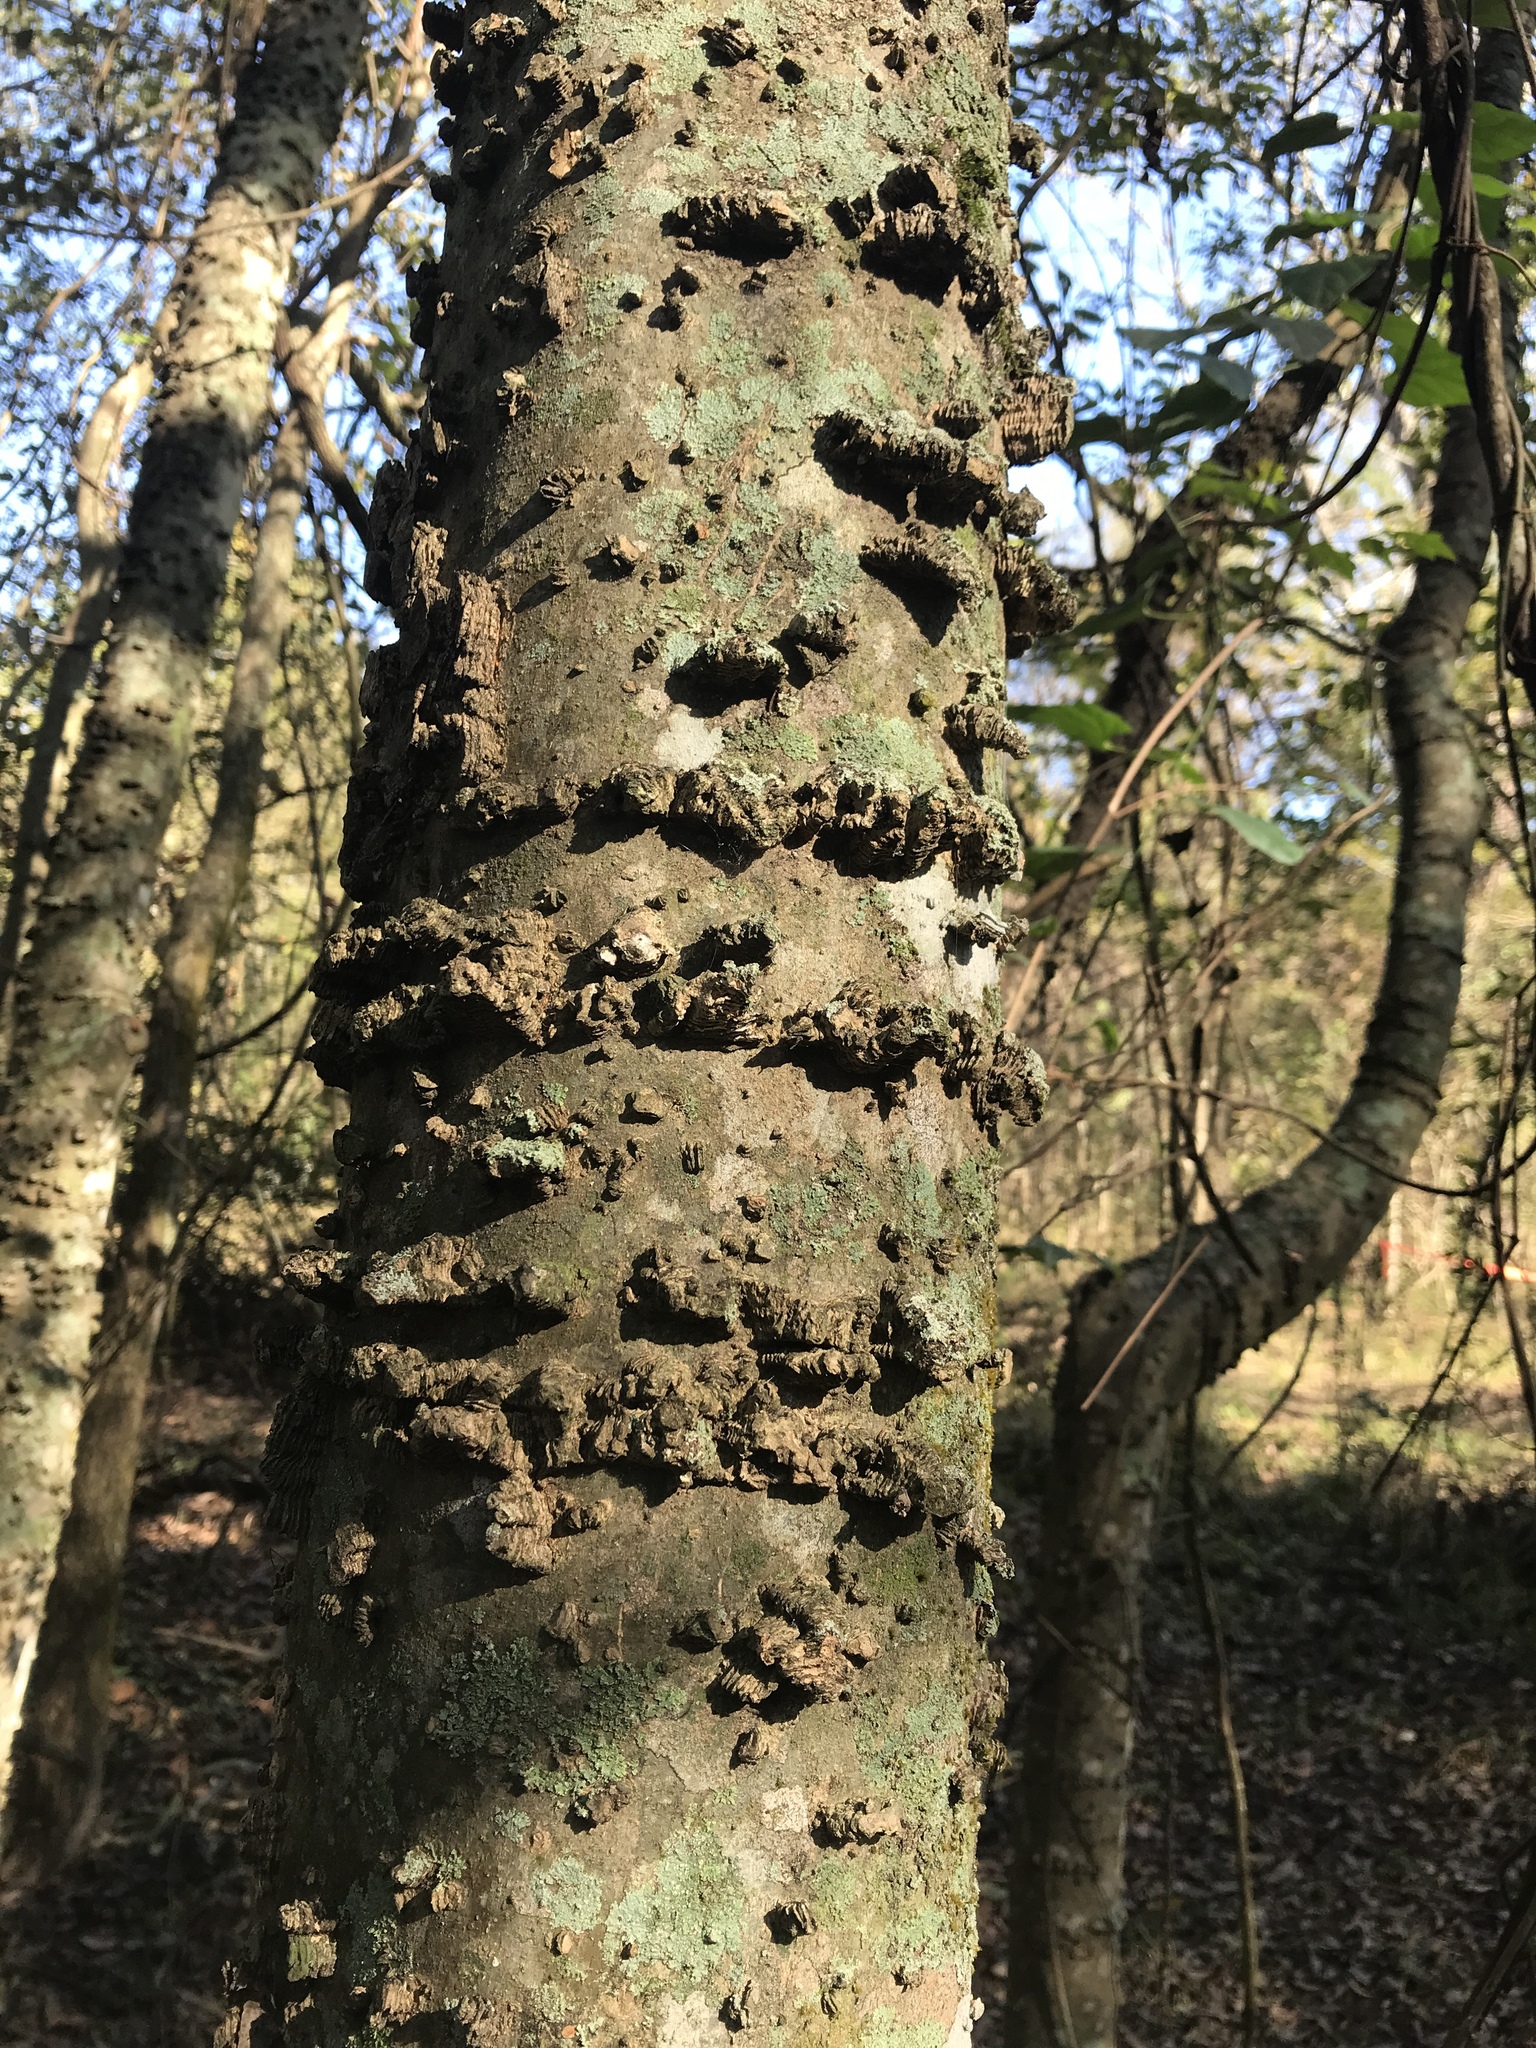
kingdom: Plantae
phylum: Tracheophyta
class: Magnoliopsida
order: Rosales
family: Cannabaceae
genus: Celtis
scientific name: Celtis laevigata
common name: Sugarberry
